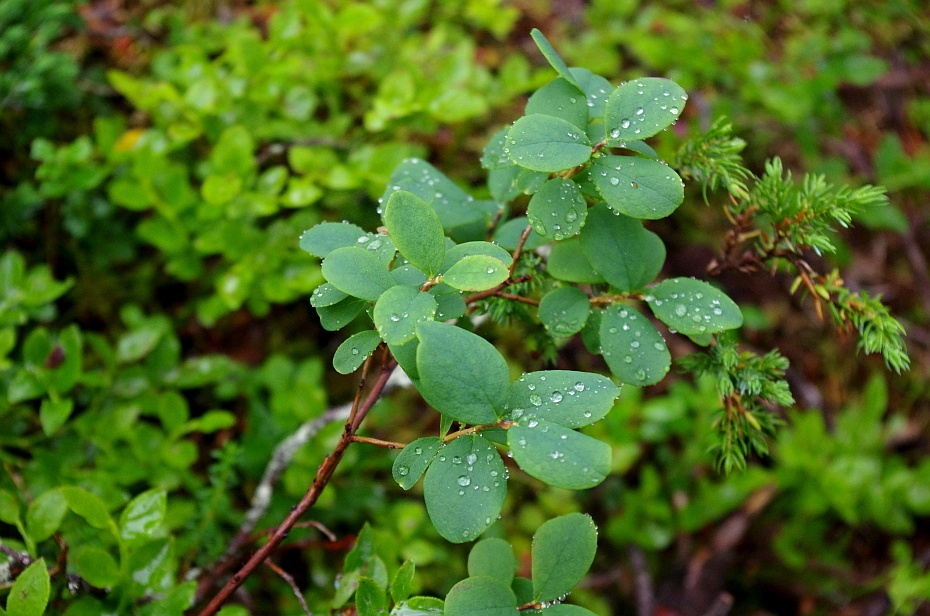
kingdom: Plantae
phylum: Tracheophyta
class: Magnoliopsida
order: Ericales
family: Ericaceae
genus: Vaccinium
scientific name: Vaccinium uliginosum
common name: Bog bilberry
